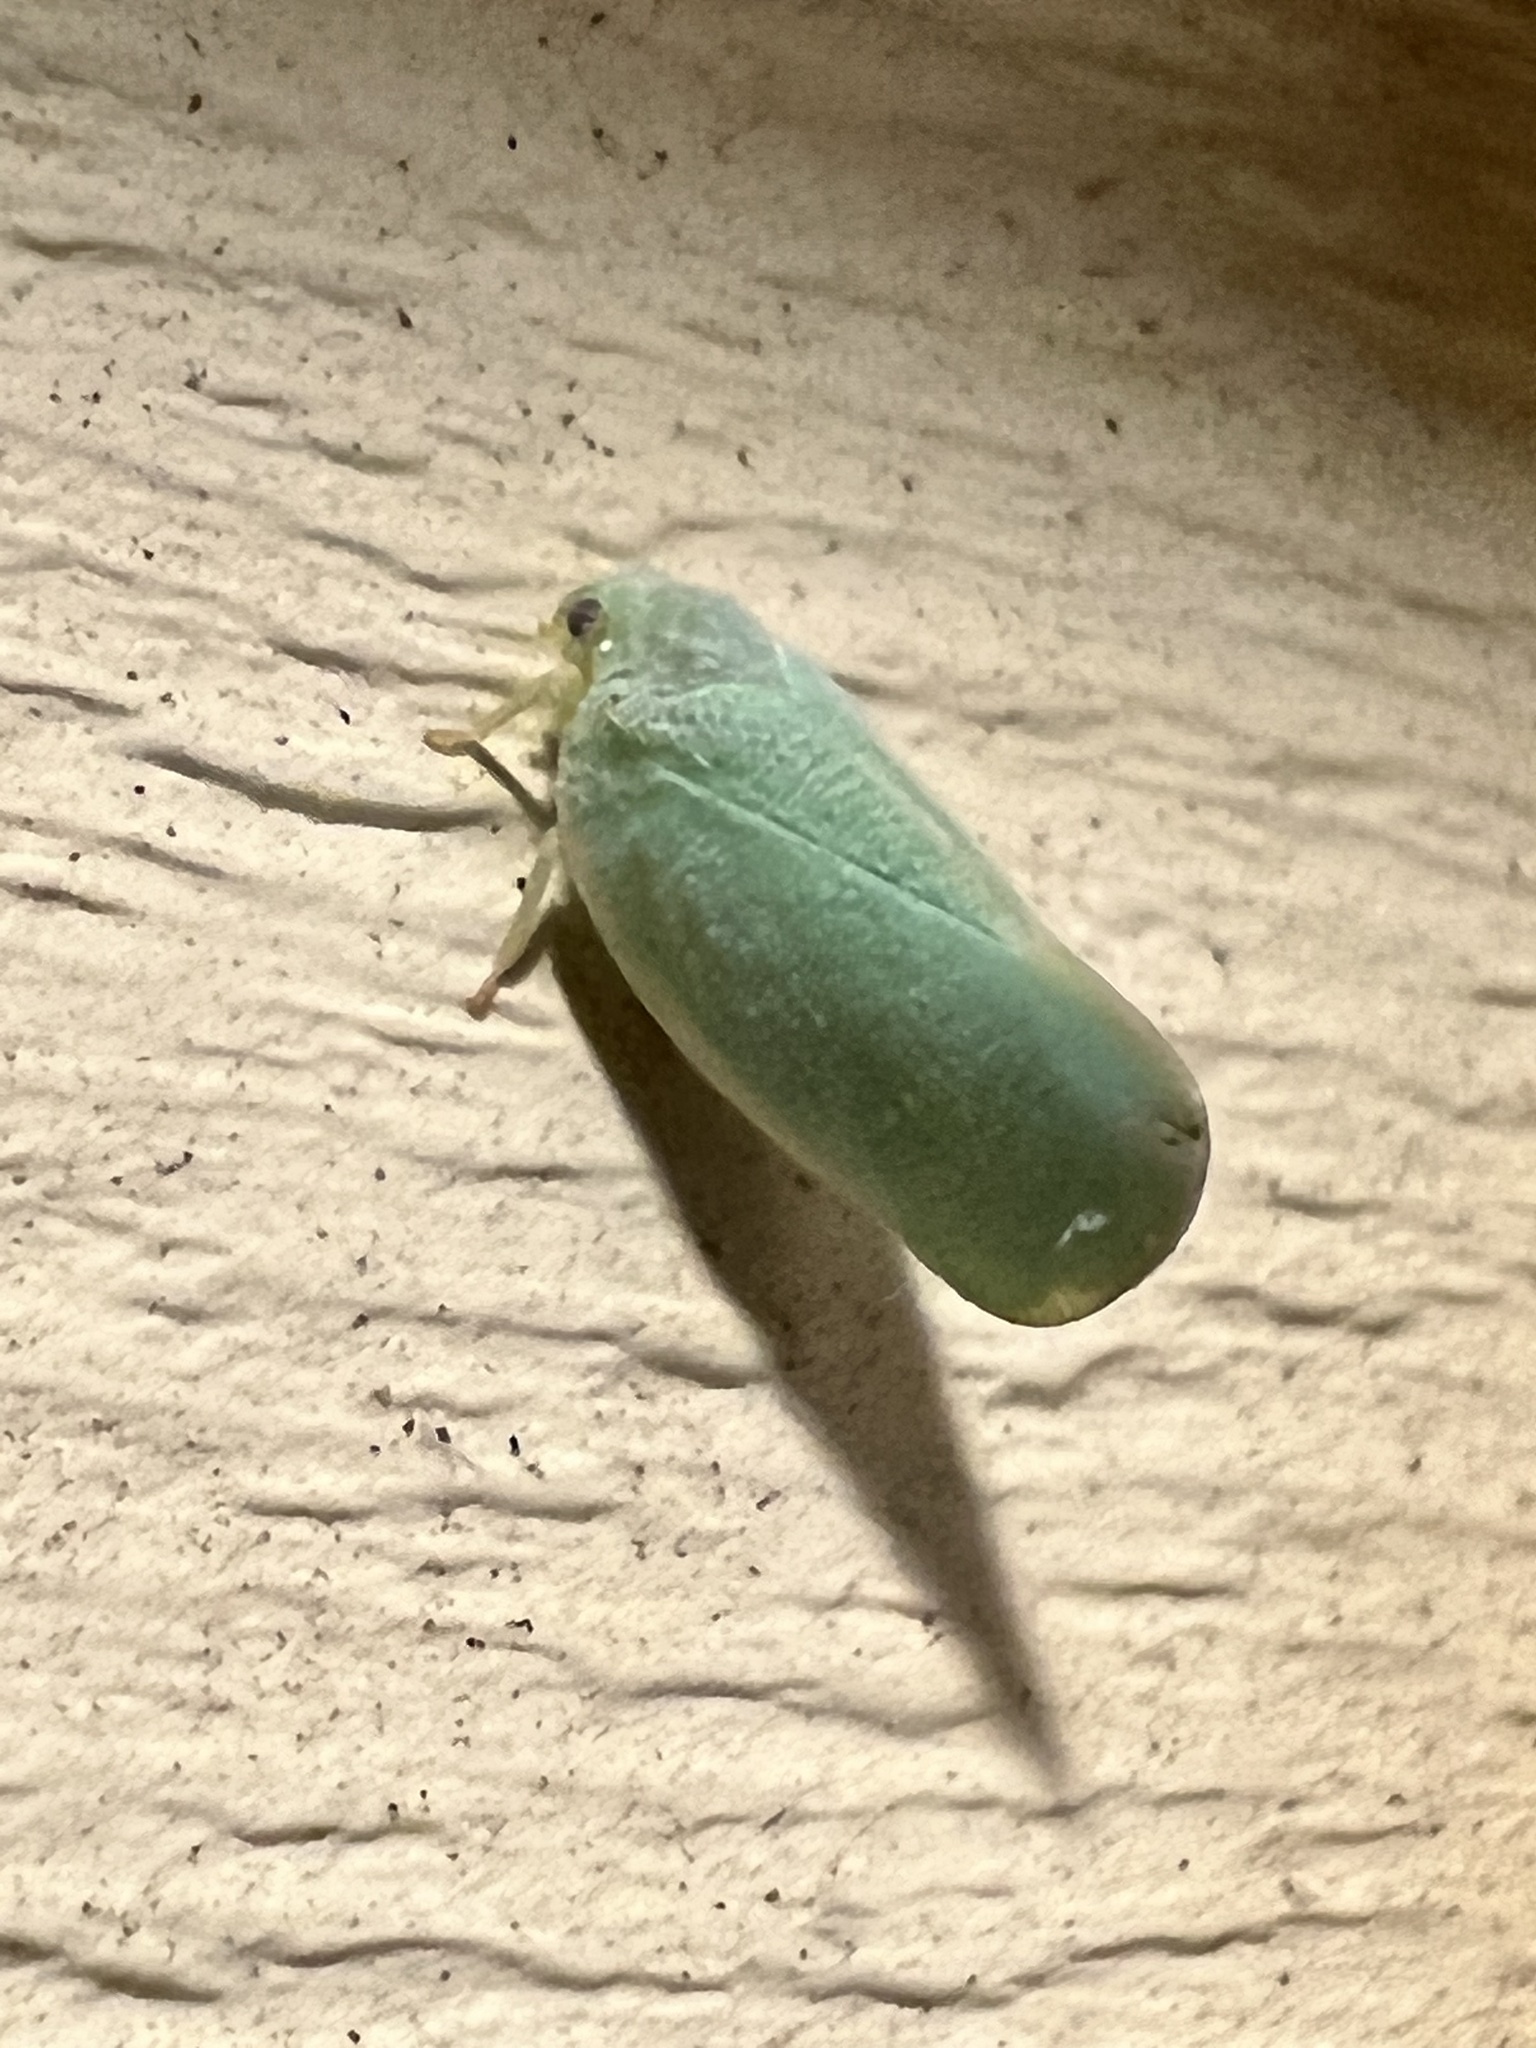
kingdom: Animalia
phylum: Arthropoda
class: Insecta
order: Hemiptera
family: Flatidae
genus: Ormenoides
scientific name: Ormenoides venusta
